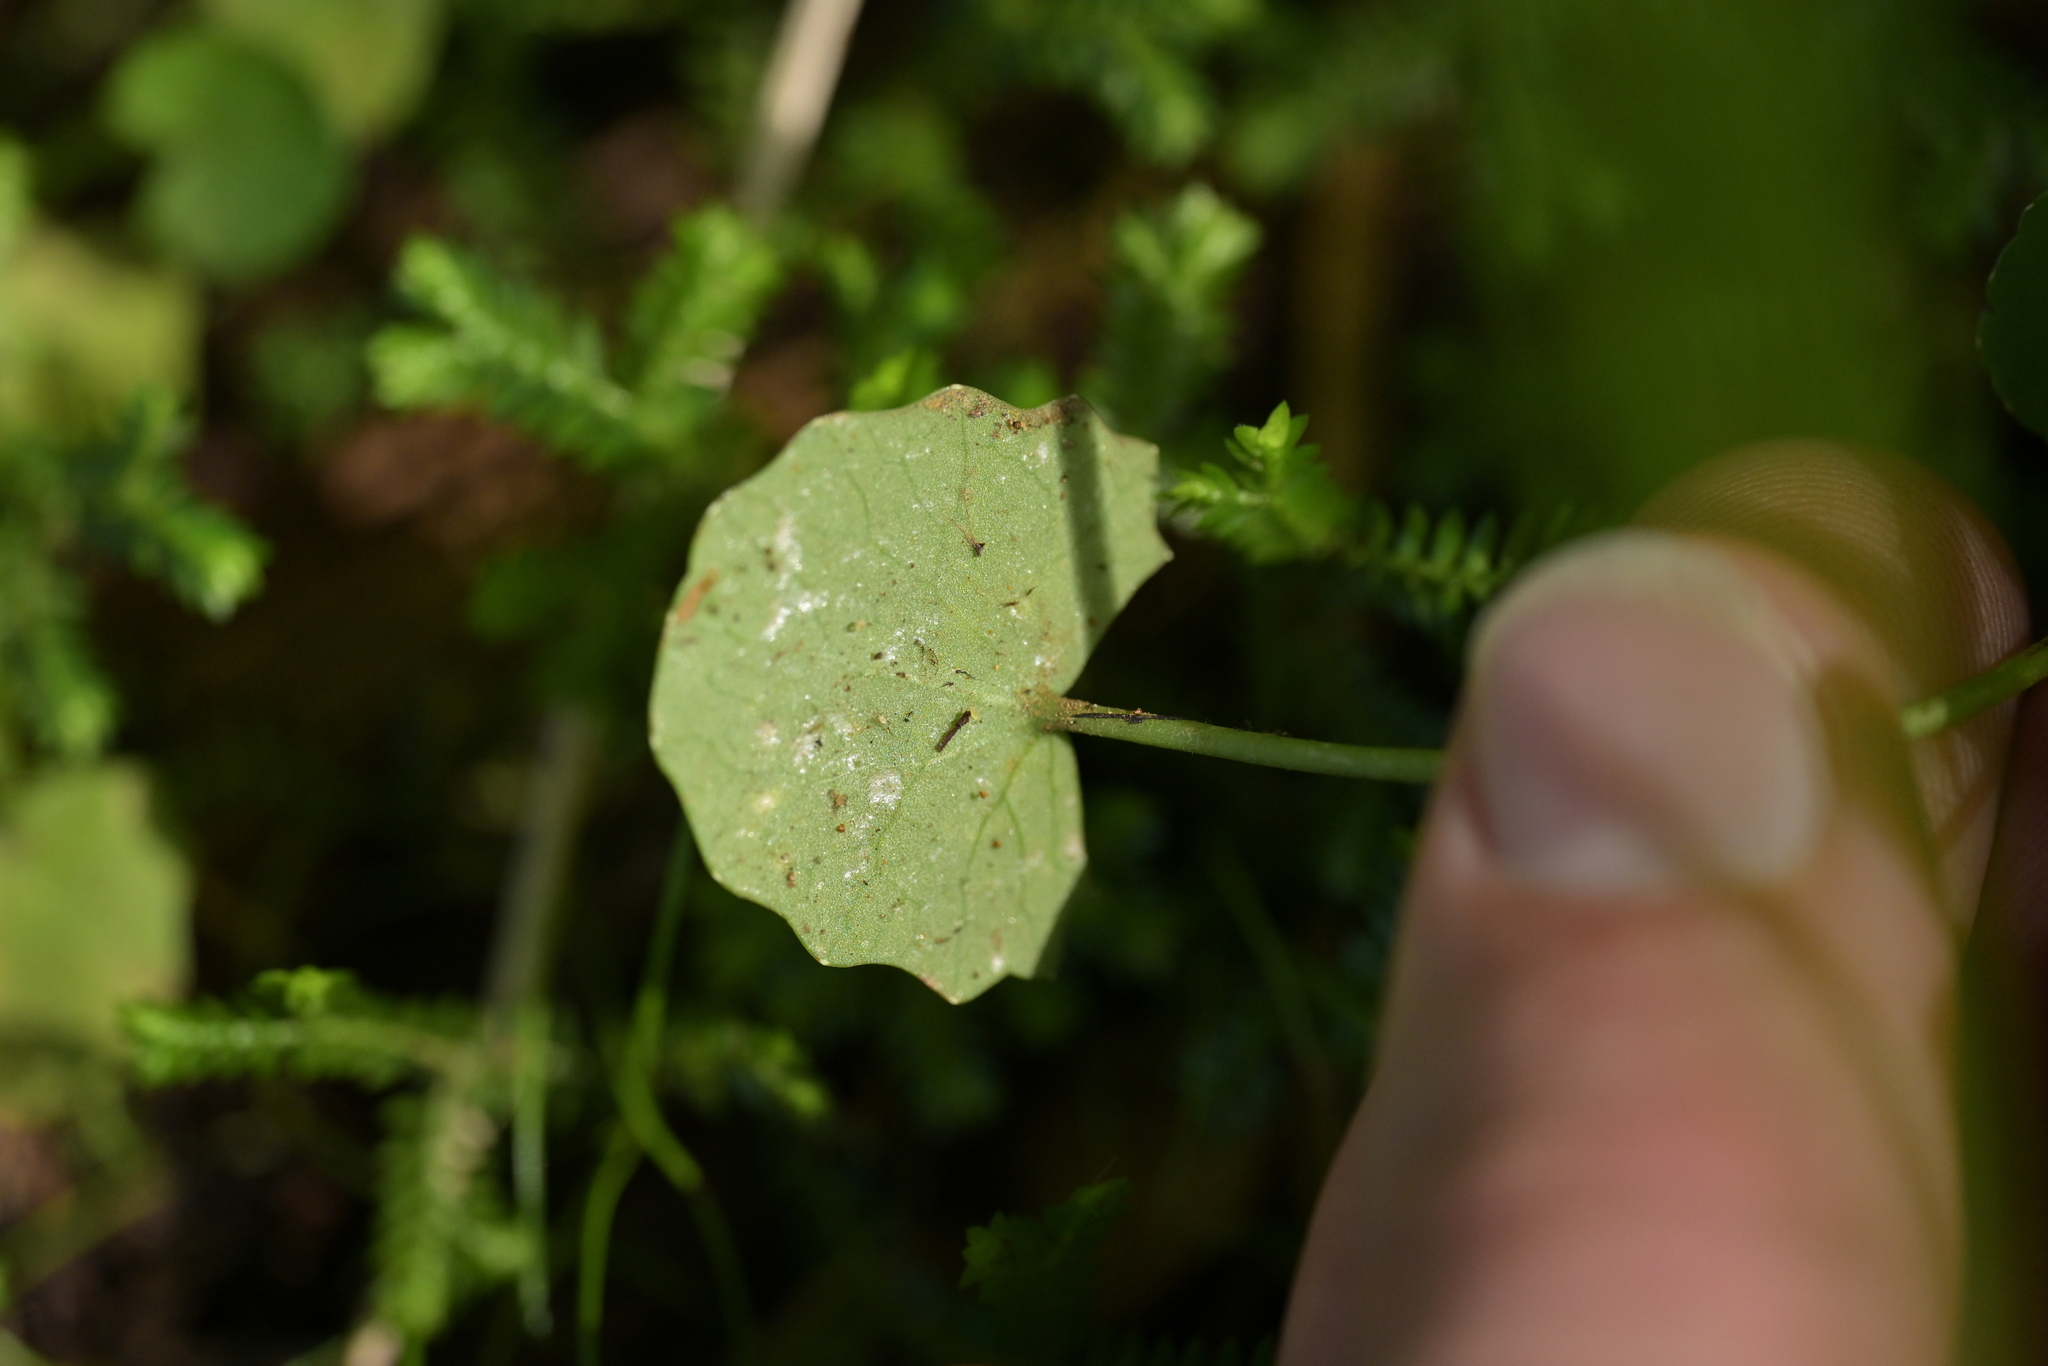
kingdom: Plantae
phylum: Tracheophyta
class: Magnoliopsida
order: Apiales
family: Apiaceae
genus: Centella
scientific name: Centella uniflora
